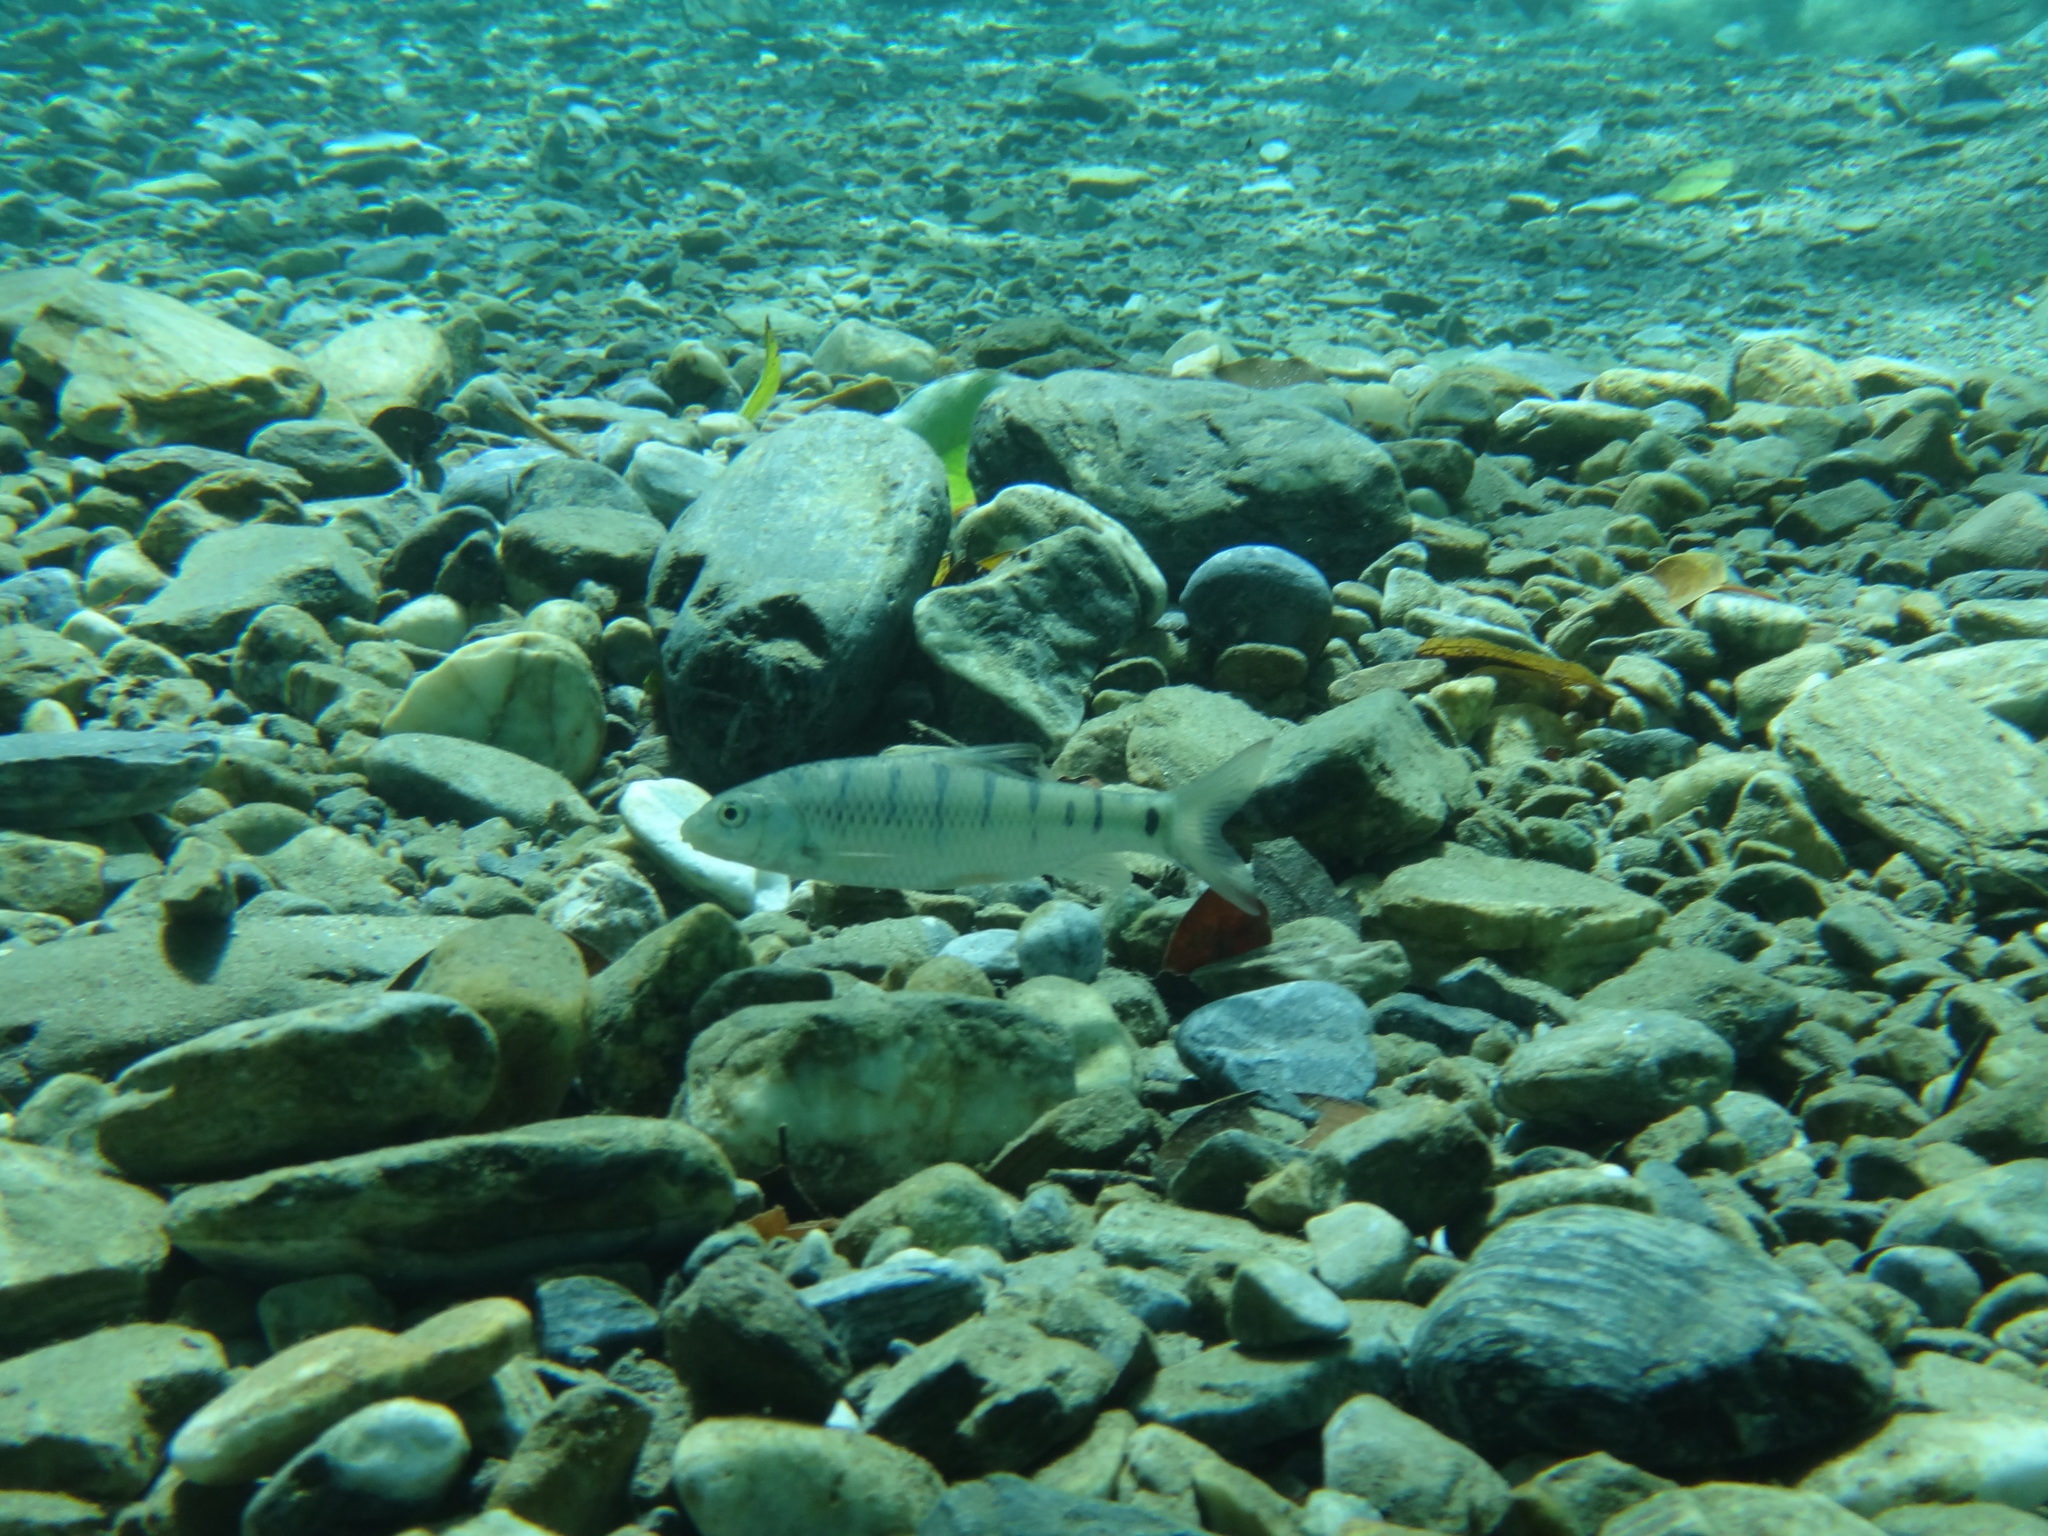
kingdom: Animalia
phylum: Chordata
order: Cypriniformes
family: Cyprinidae
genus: Acrossocheilus
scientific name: Acrossocheilus paradoxus
